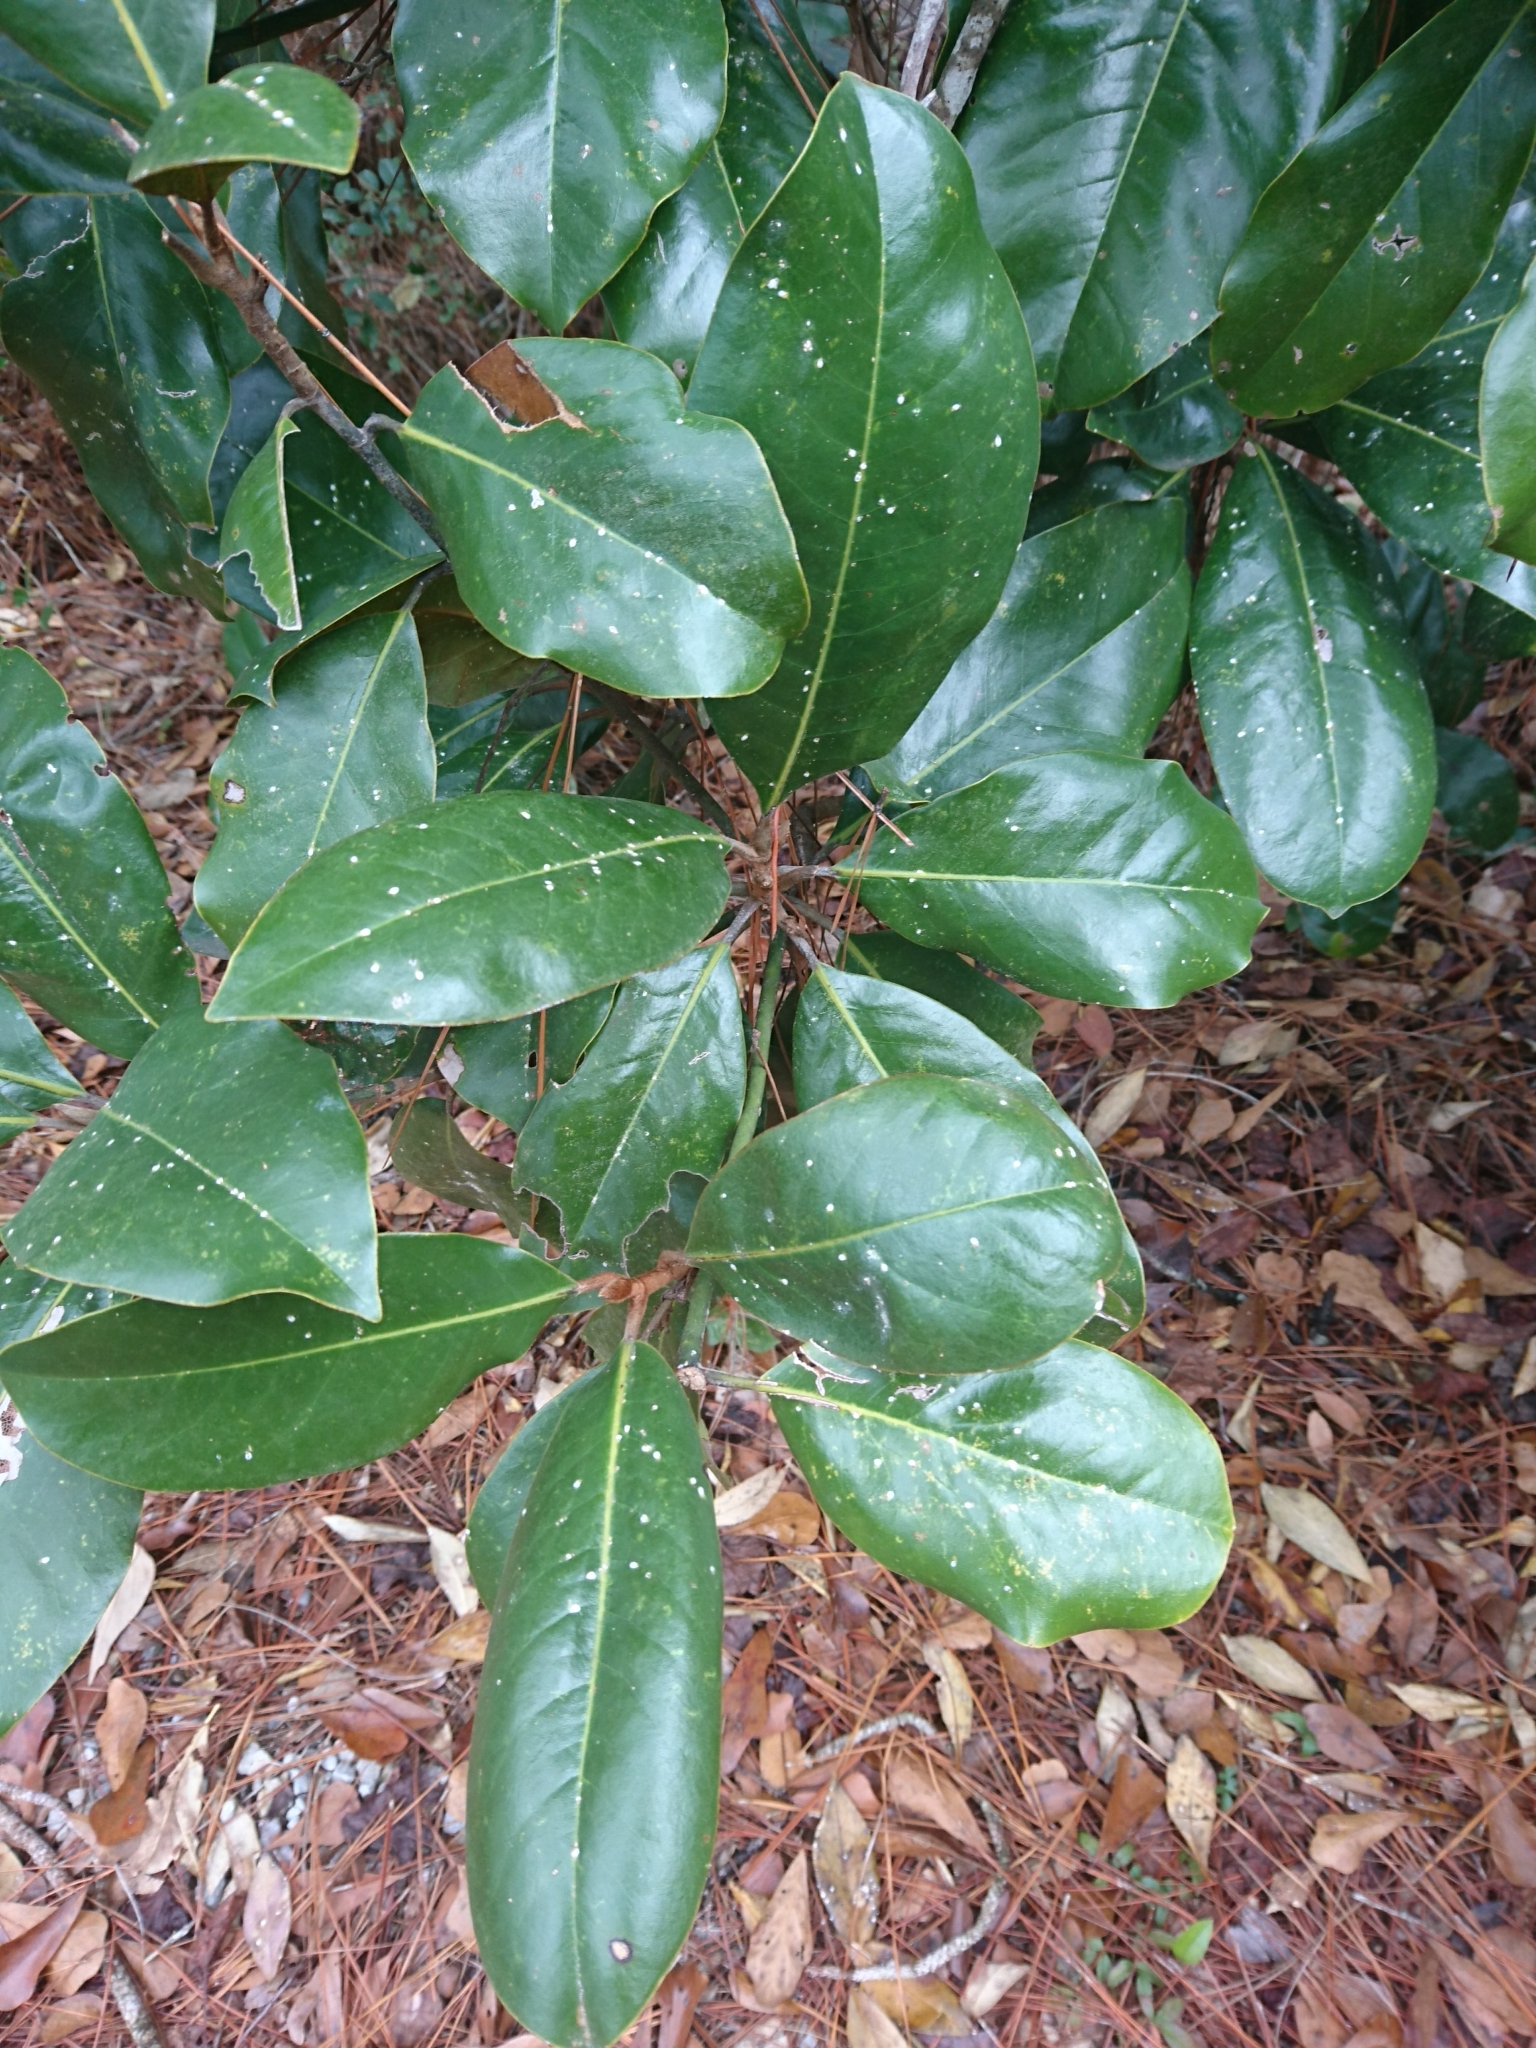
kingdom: Plantae
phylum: Tracheophyta
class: Magnoliopsida
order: Magnoliales
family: Magnoliaceae
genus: Magnolia
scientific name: Magnolia grandiflora
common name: Southern magnolia
